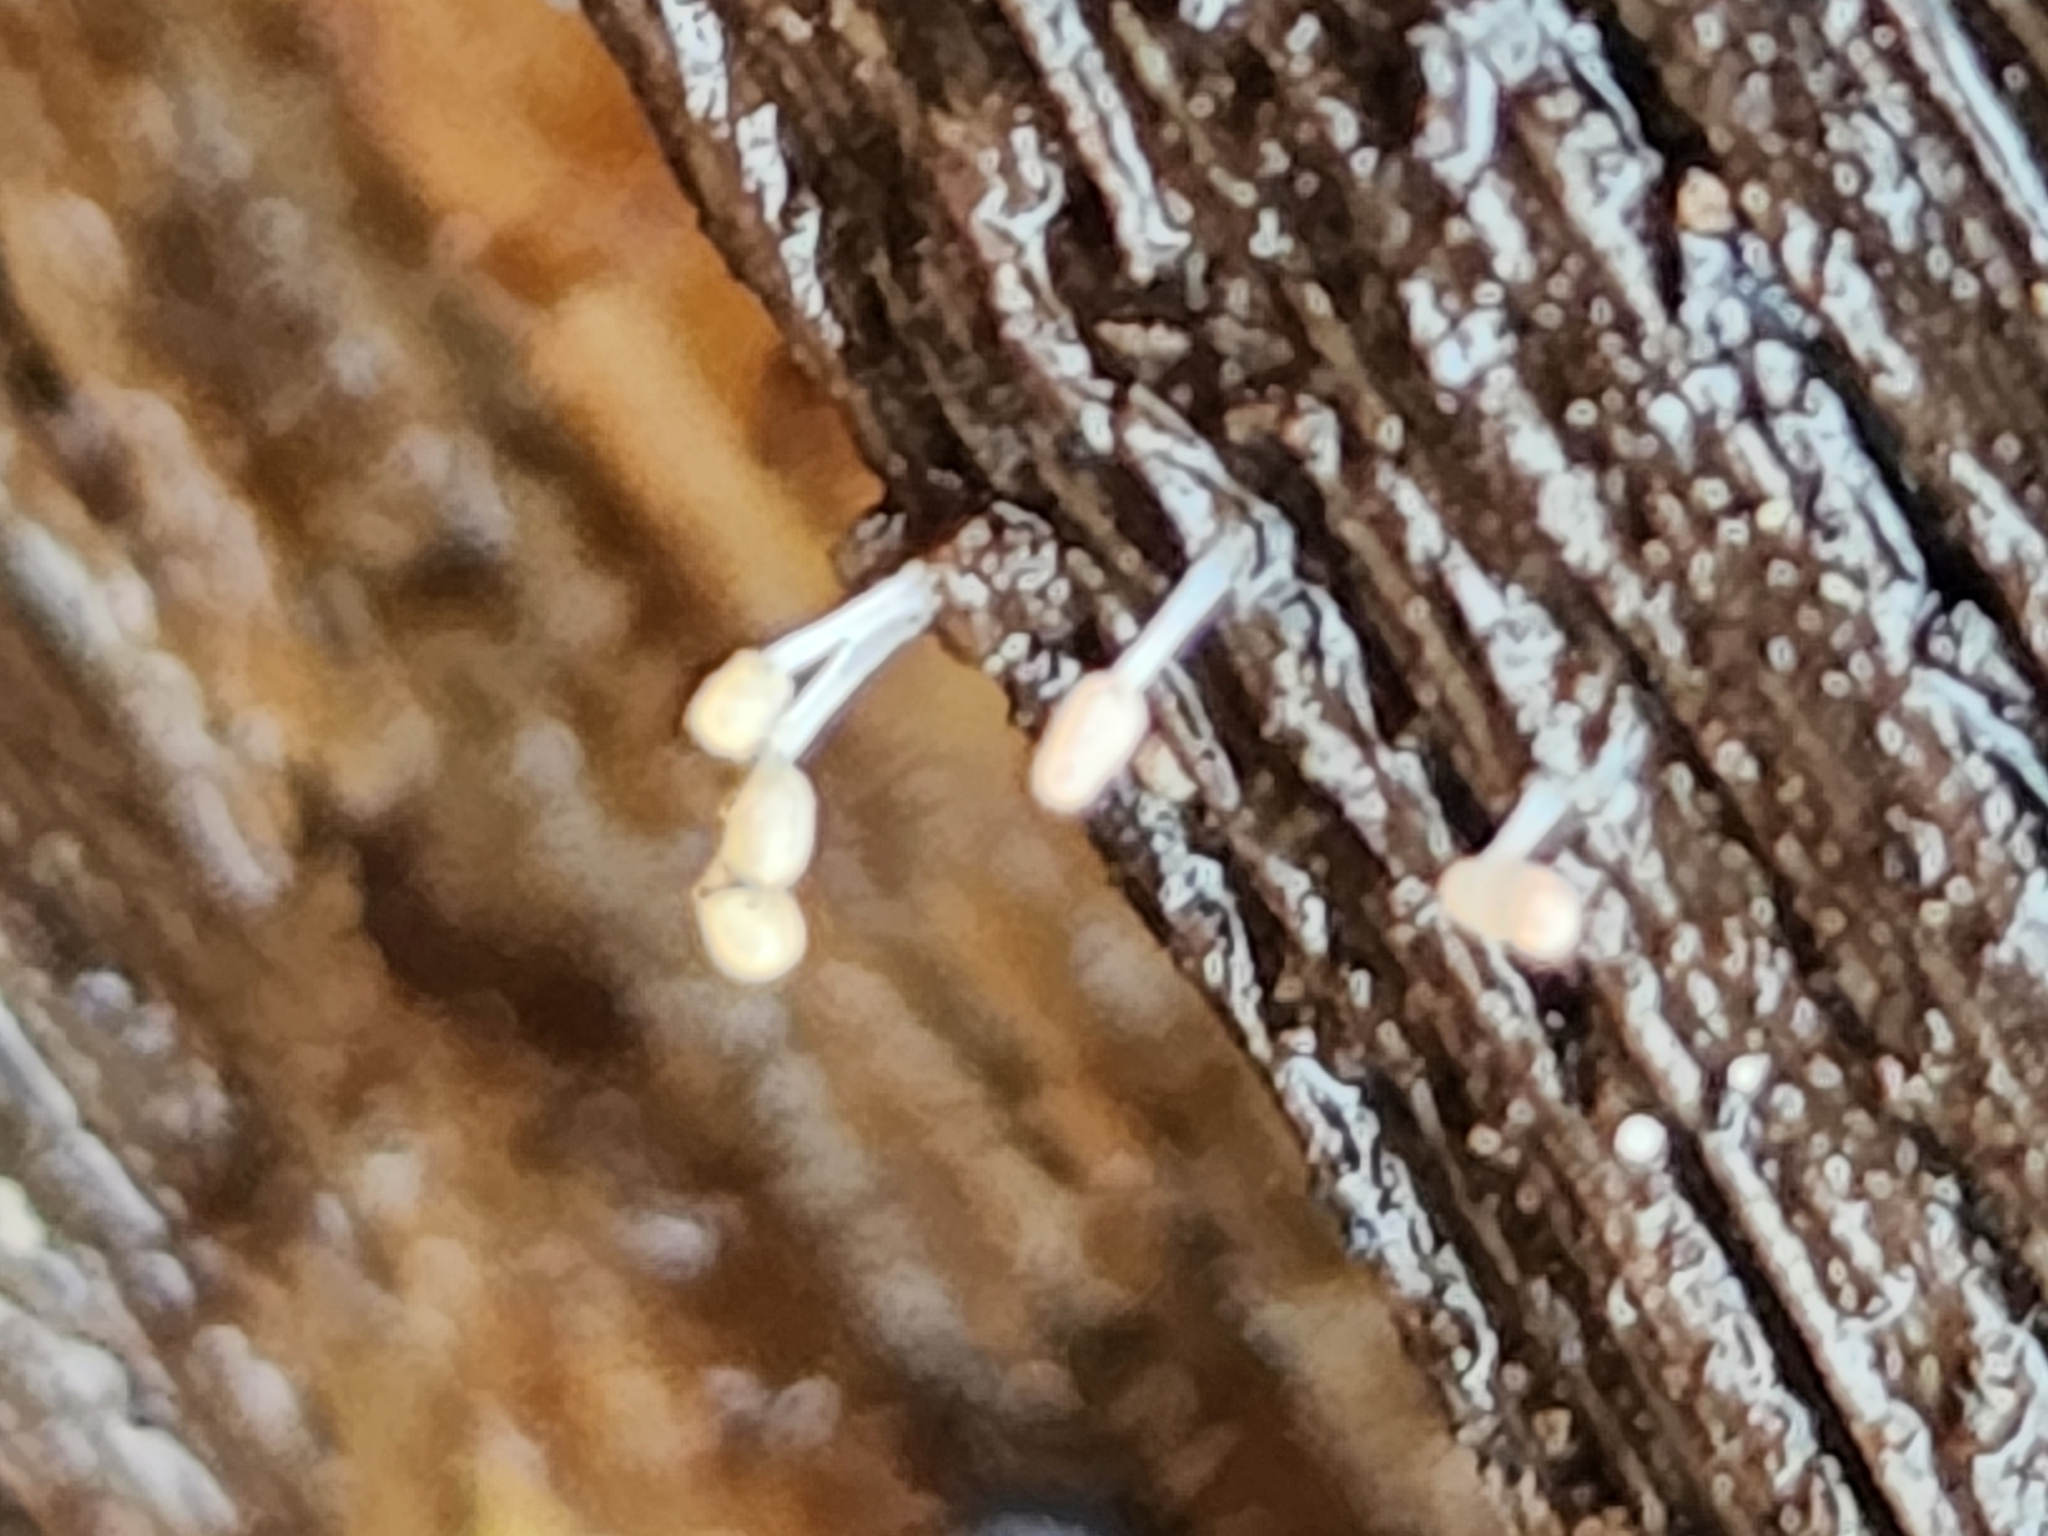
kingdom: Protozoa
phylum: Mycetozoa
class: Myxomycetes
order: Trichiales
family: Arcyriaceae
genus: Arcyria
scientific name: Arcyria cinerea
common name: White carnival candy slime mold
